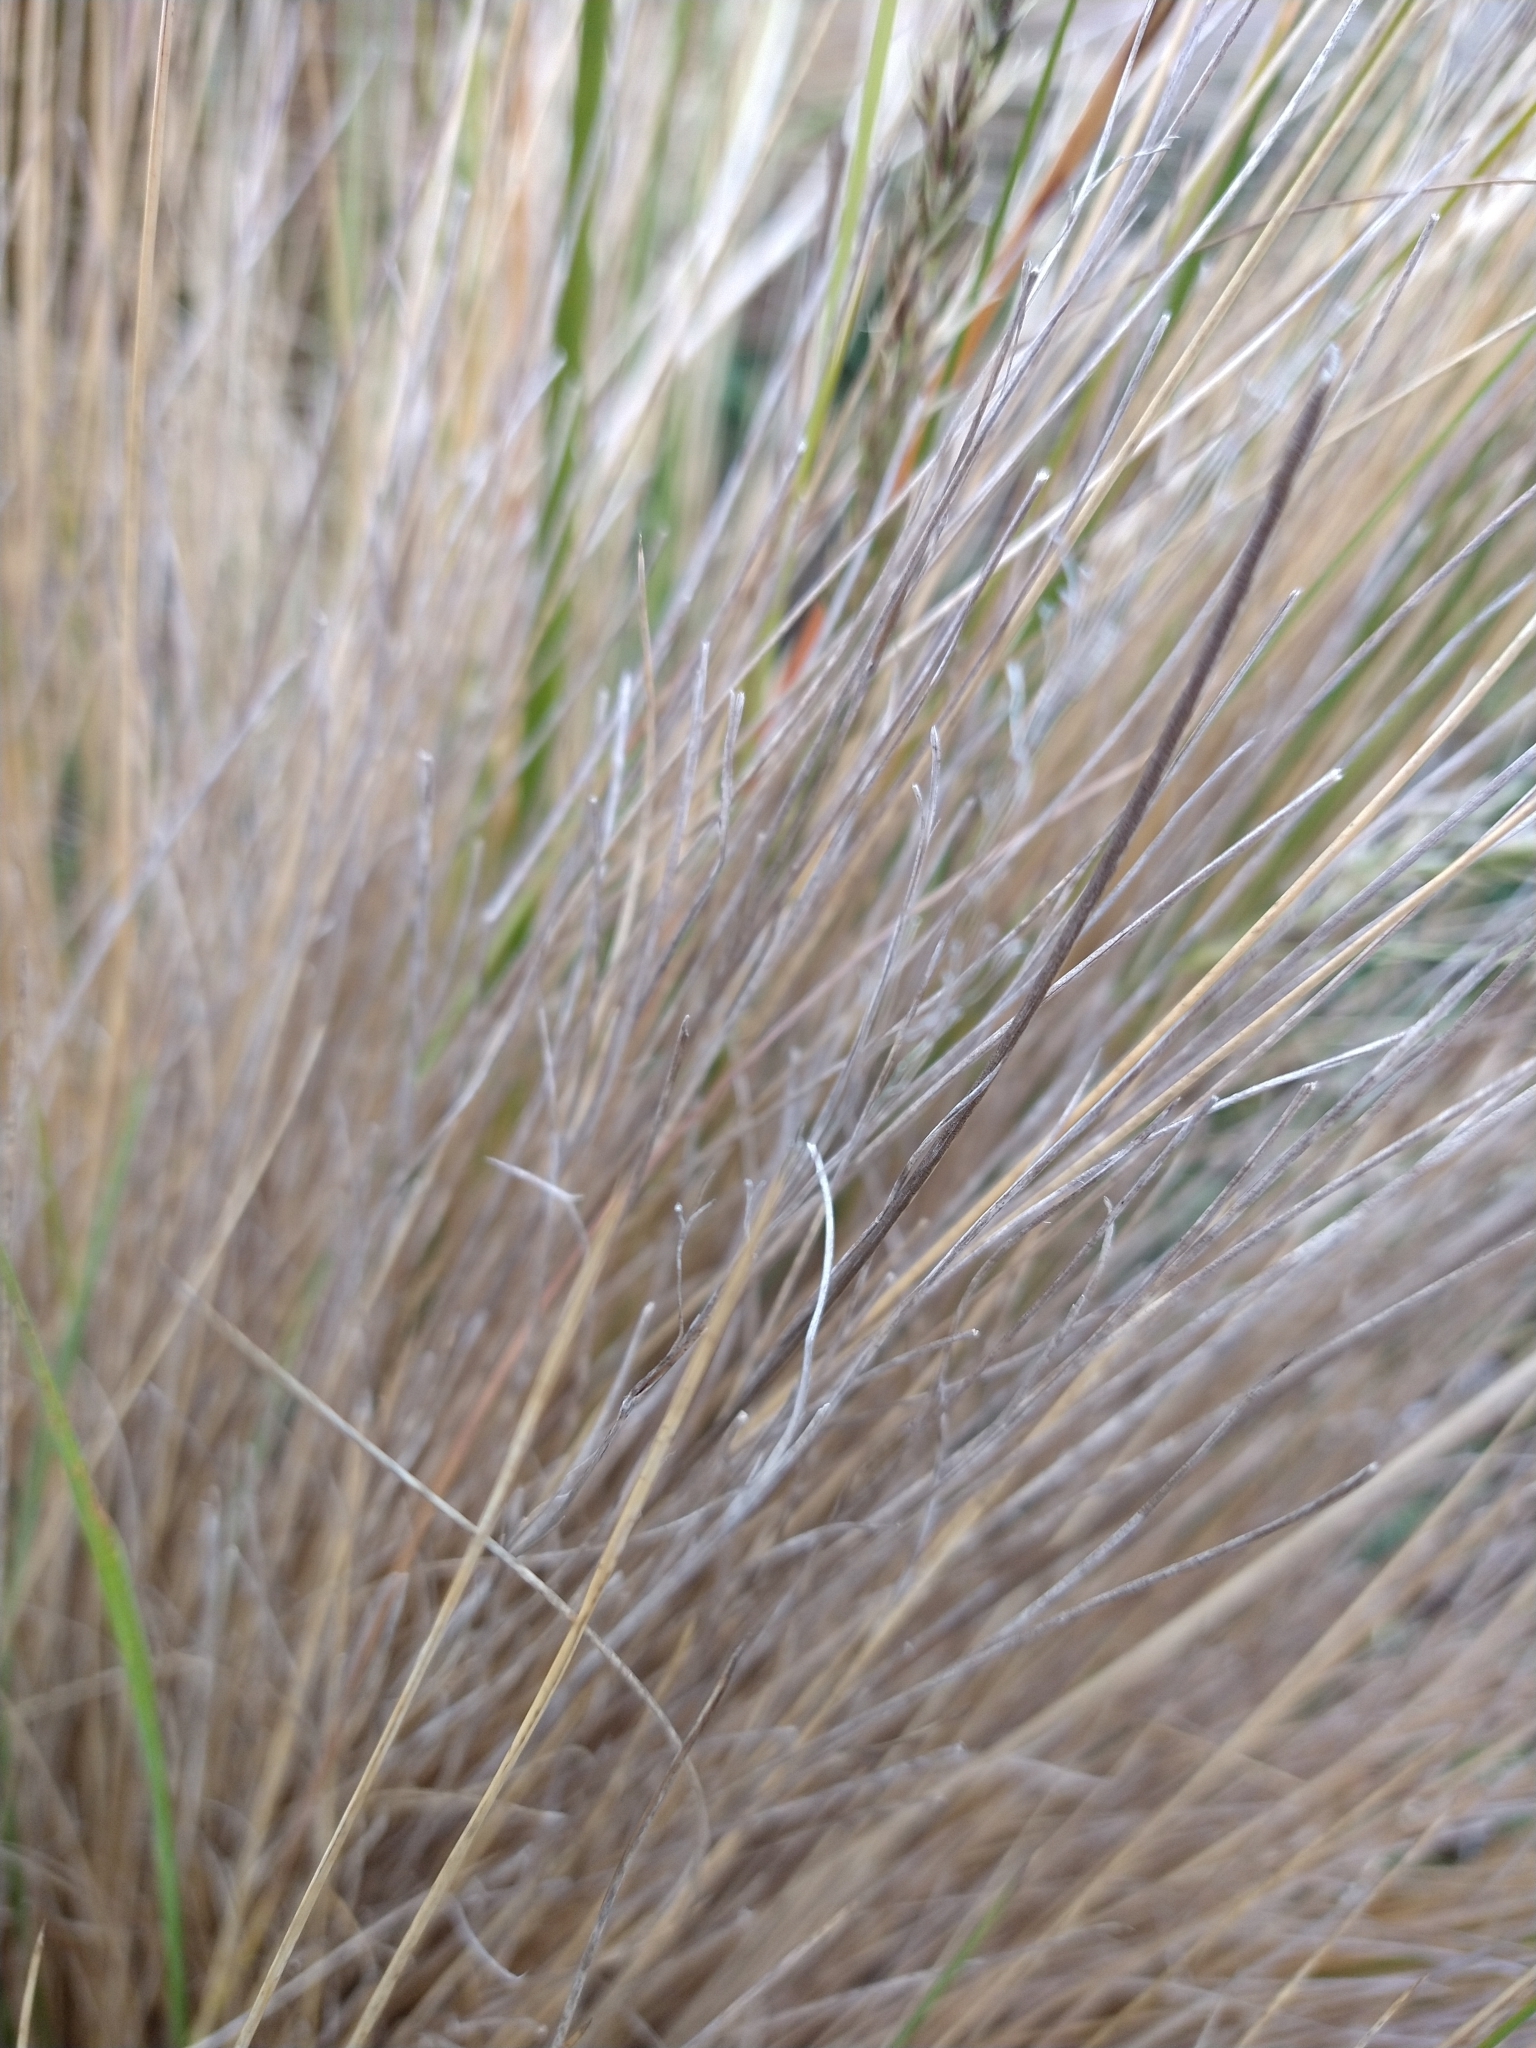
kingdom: Plantae
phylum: Tracheophyta
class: Liliopsida
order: Poales
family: Poaceae
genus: Festuca
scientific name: Festuca gracillima
